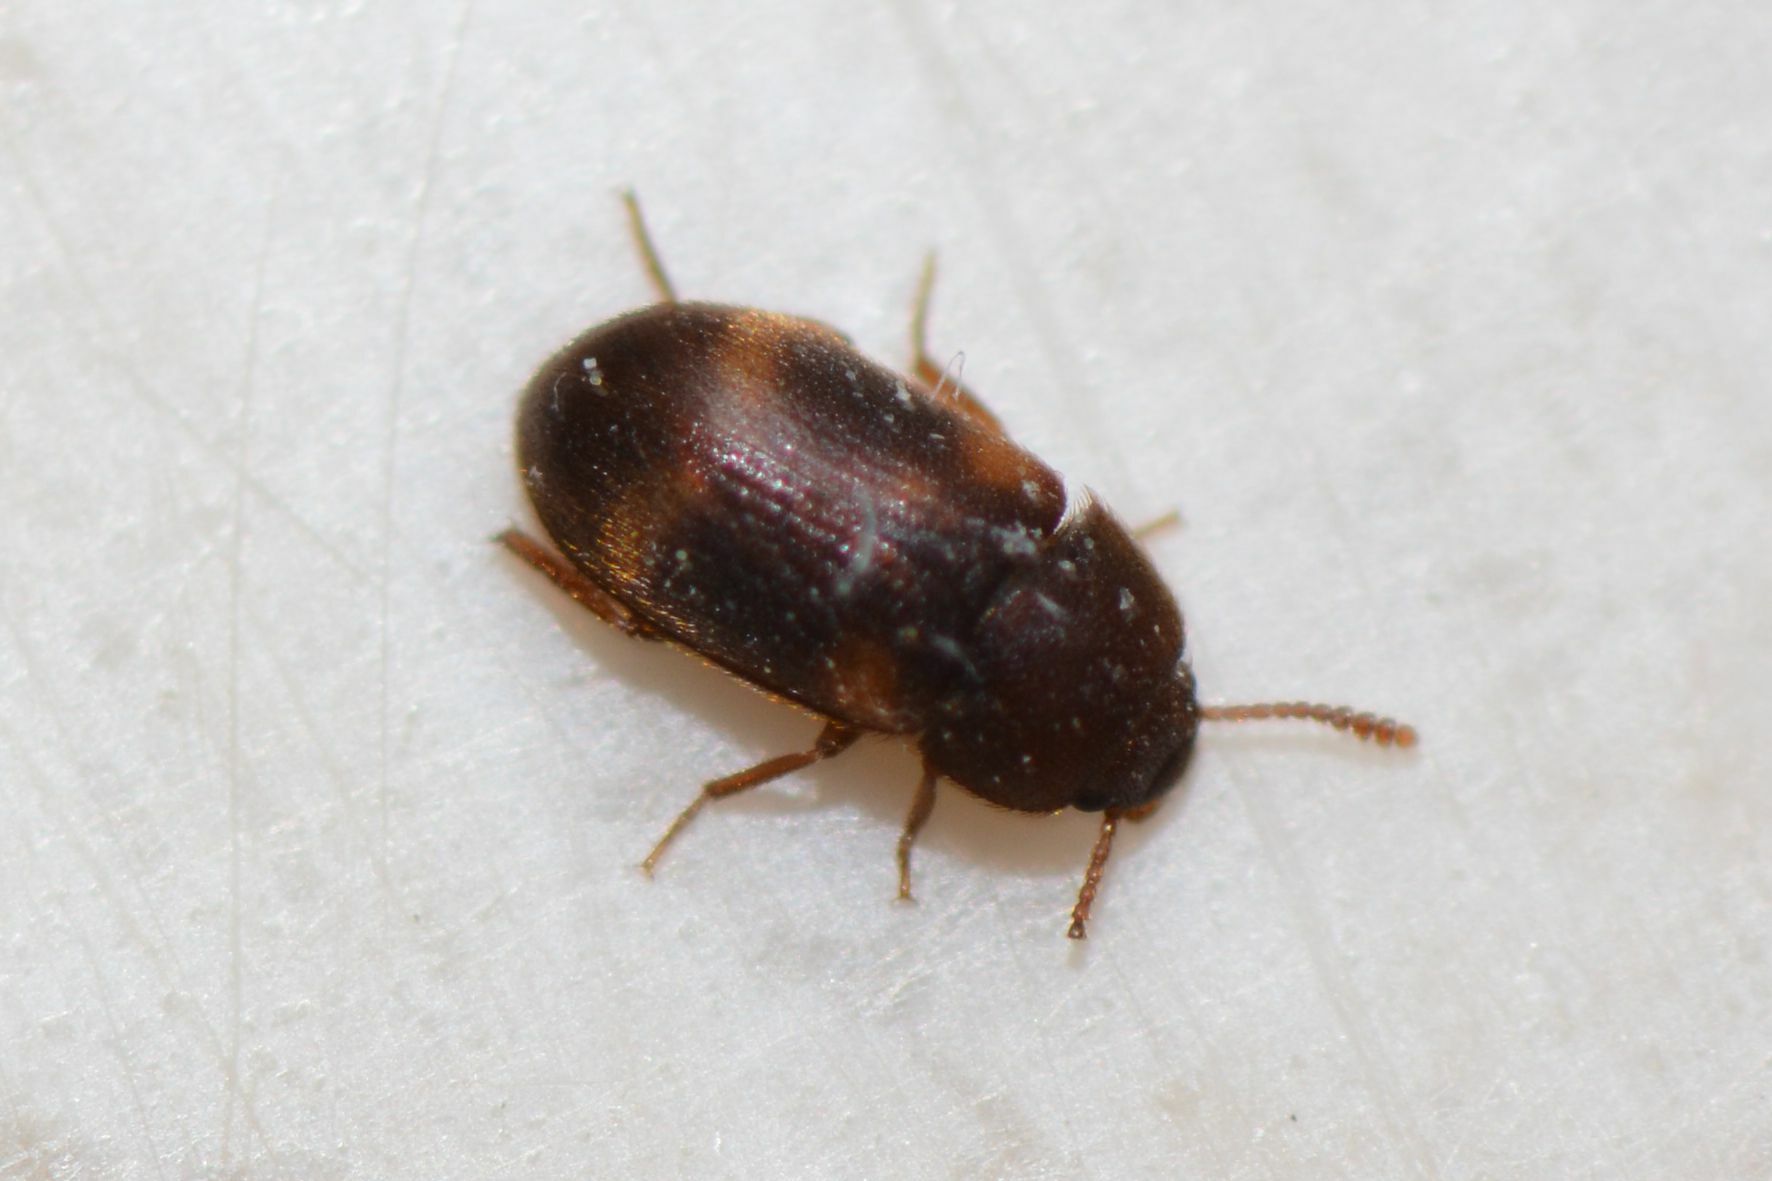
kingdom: Animalia
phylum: Arthropoda
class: Insecta
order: Coleoptera
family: Mycetophagidae
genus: Mycetophagus
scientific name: Mycetophagus quadriguttatus
